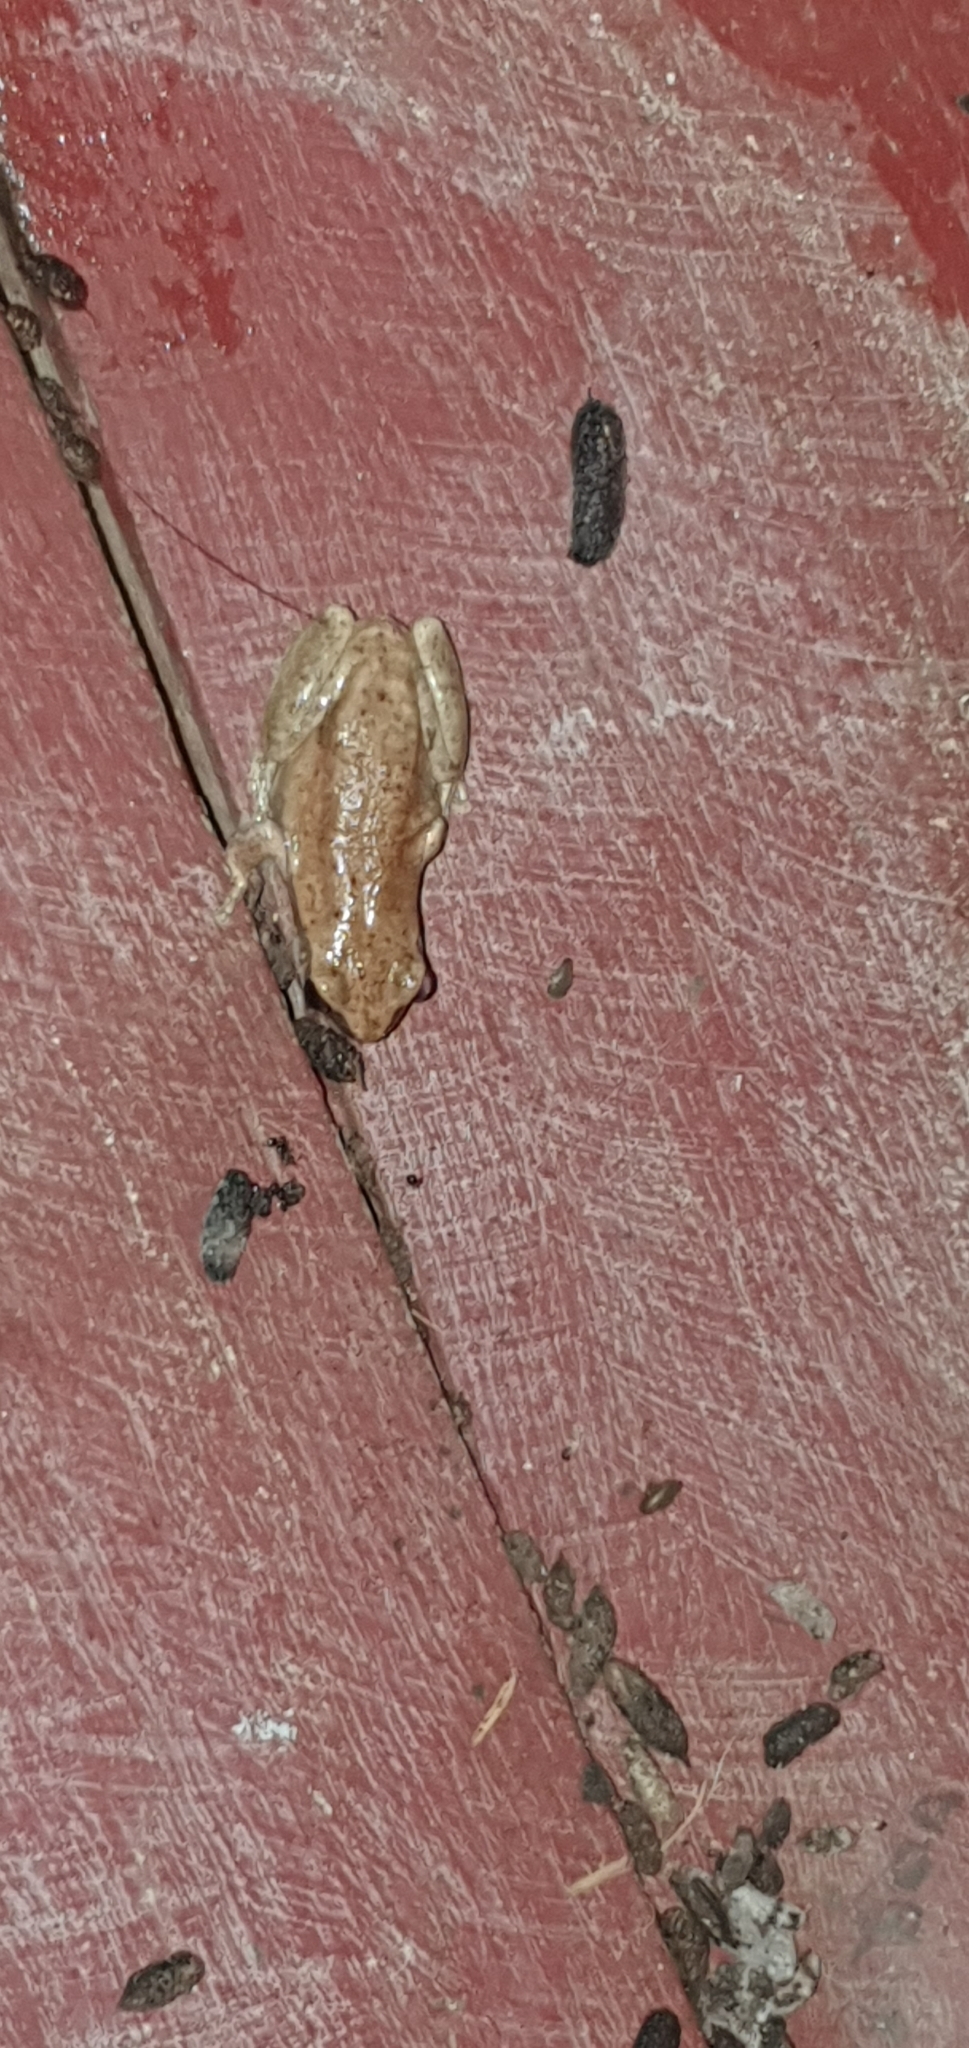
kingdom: Animalia
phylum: Chordata
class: Amphibia
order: Anura
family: Pelodryadidae
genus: Litoria
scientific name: Litoria rubella
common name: Desert tree frog
